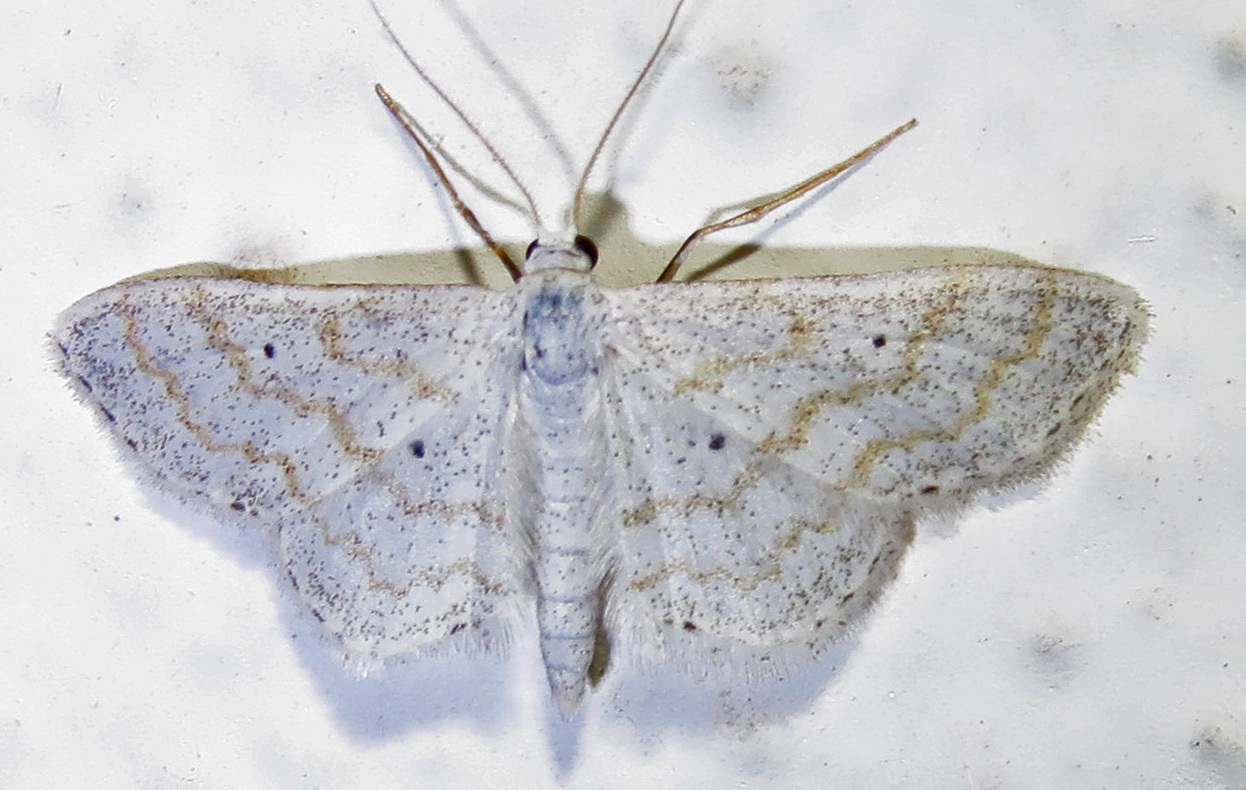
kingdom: Animalia
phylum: Arthropoda
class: Insecta
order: Lepidoptera
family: Geometridae
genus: Lobocleta
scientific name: Lobocleta peralbata
